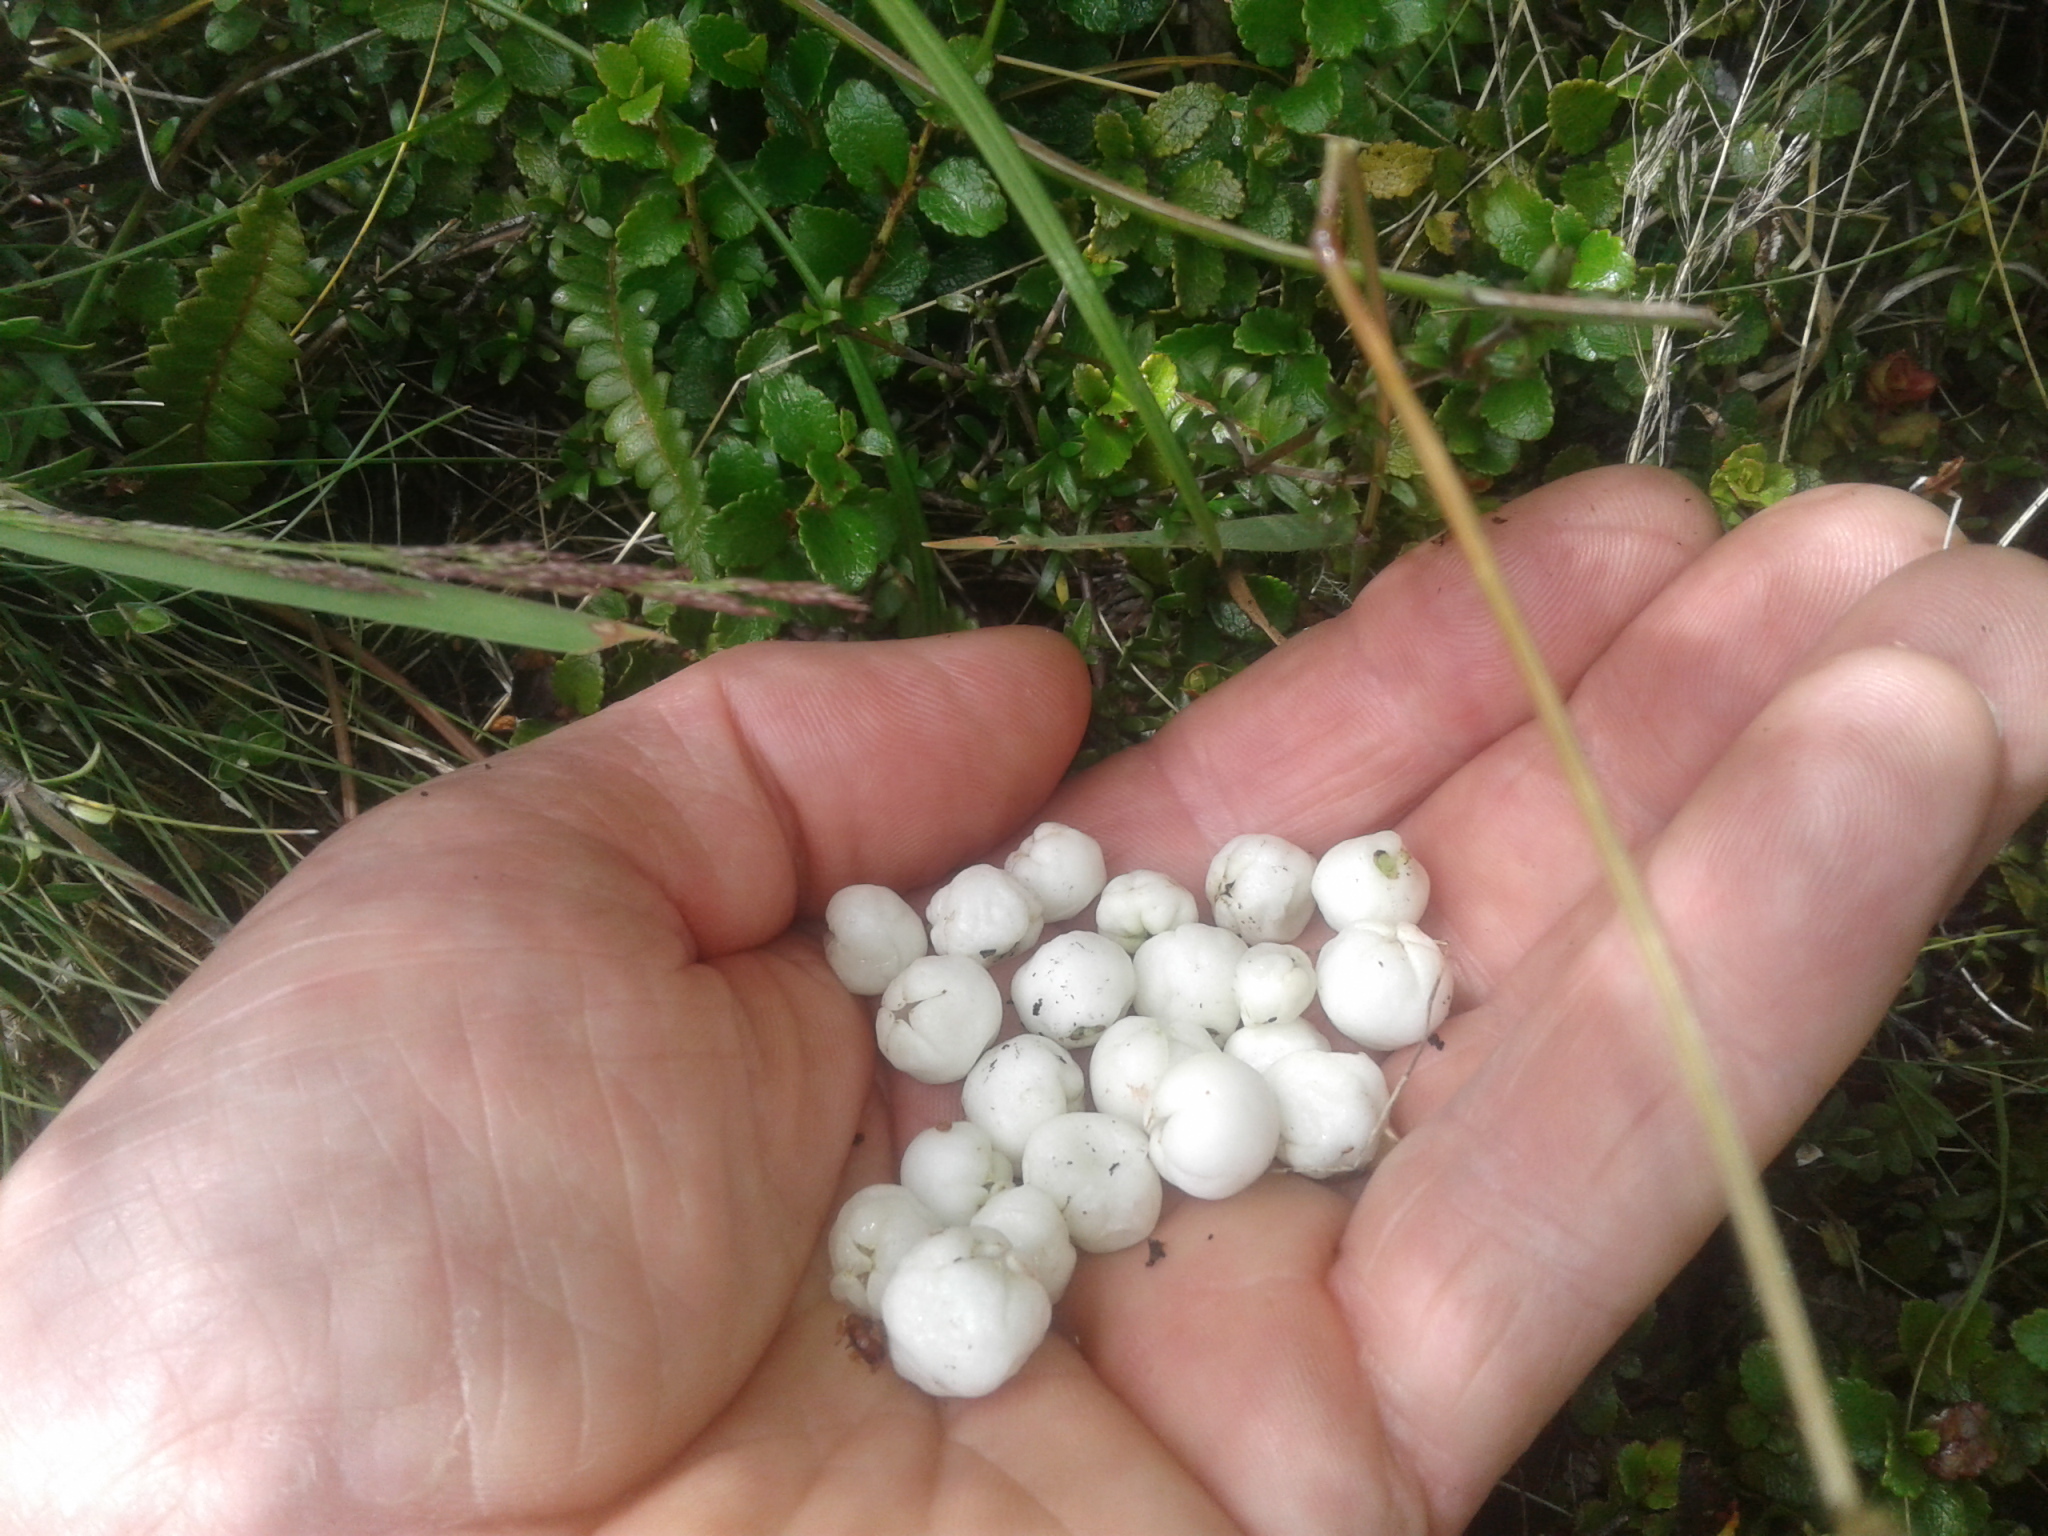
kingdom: Plantae
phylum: Tracheophyta
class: Magnoliopsida
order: Ericales
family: Ericaceae
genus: Gaultheria
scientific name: Gaultheria depressa
